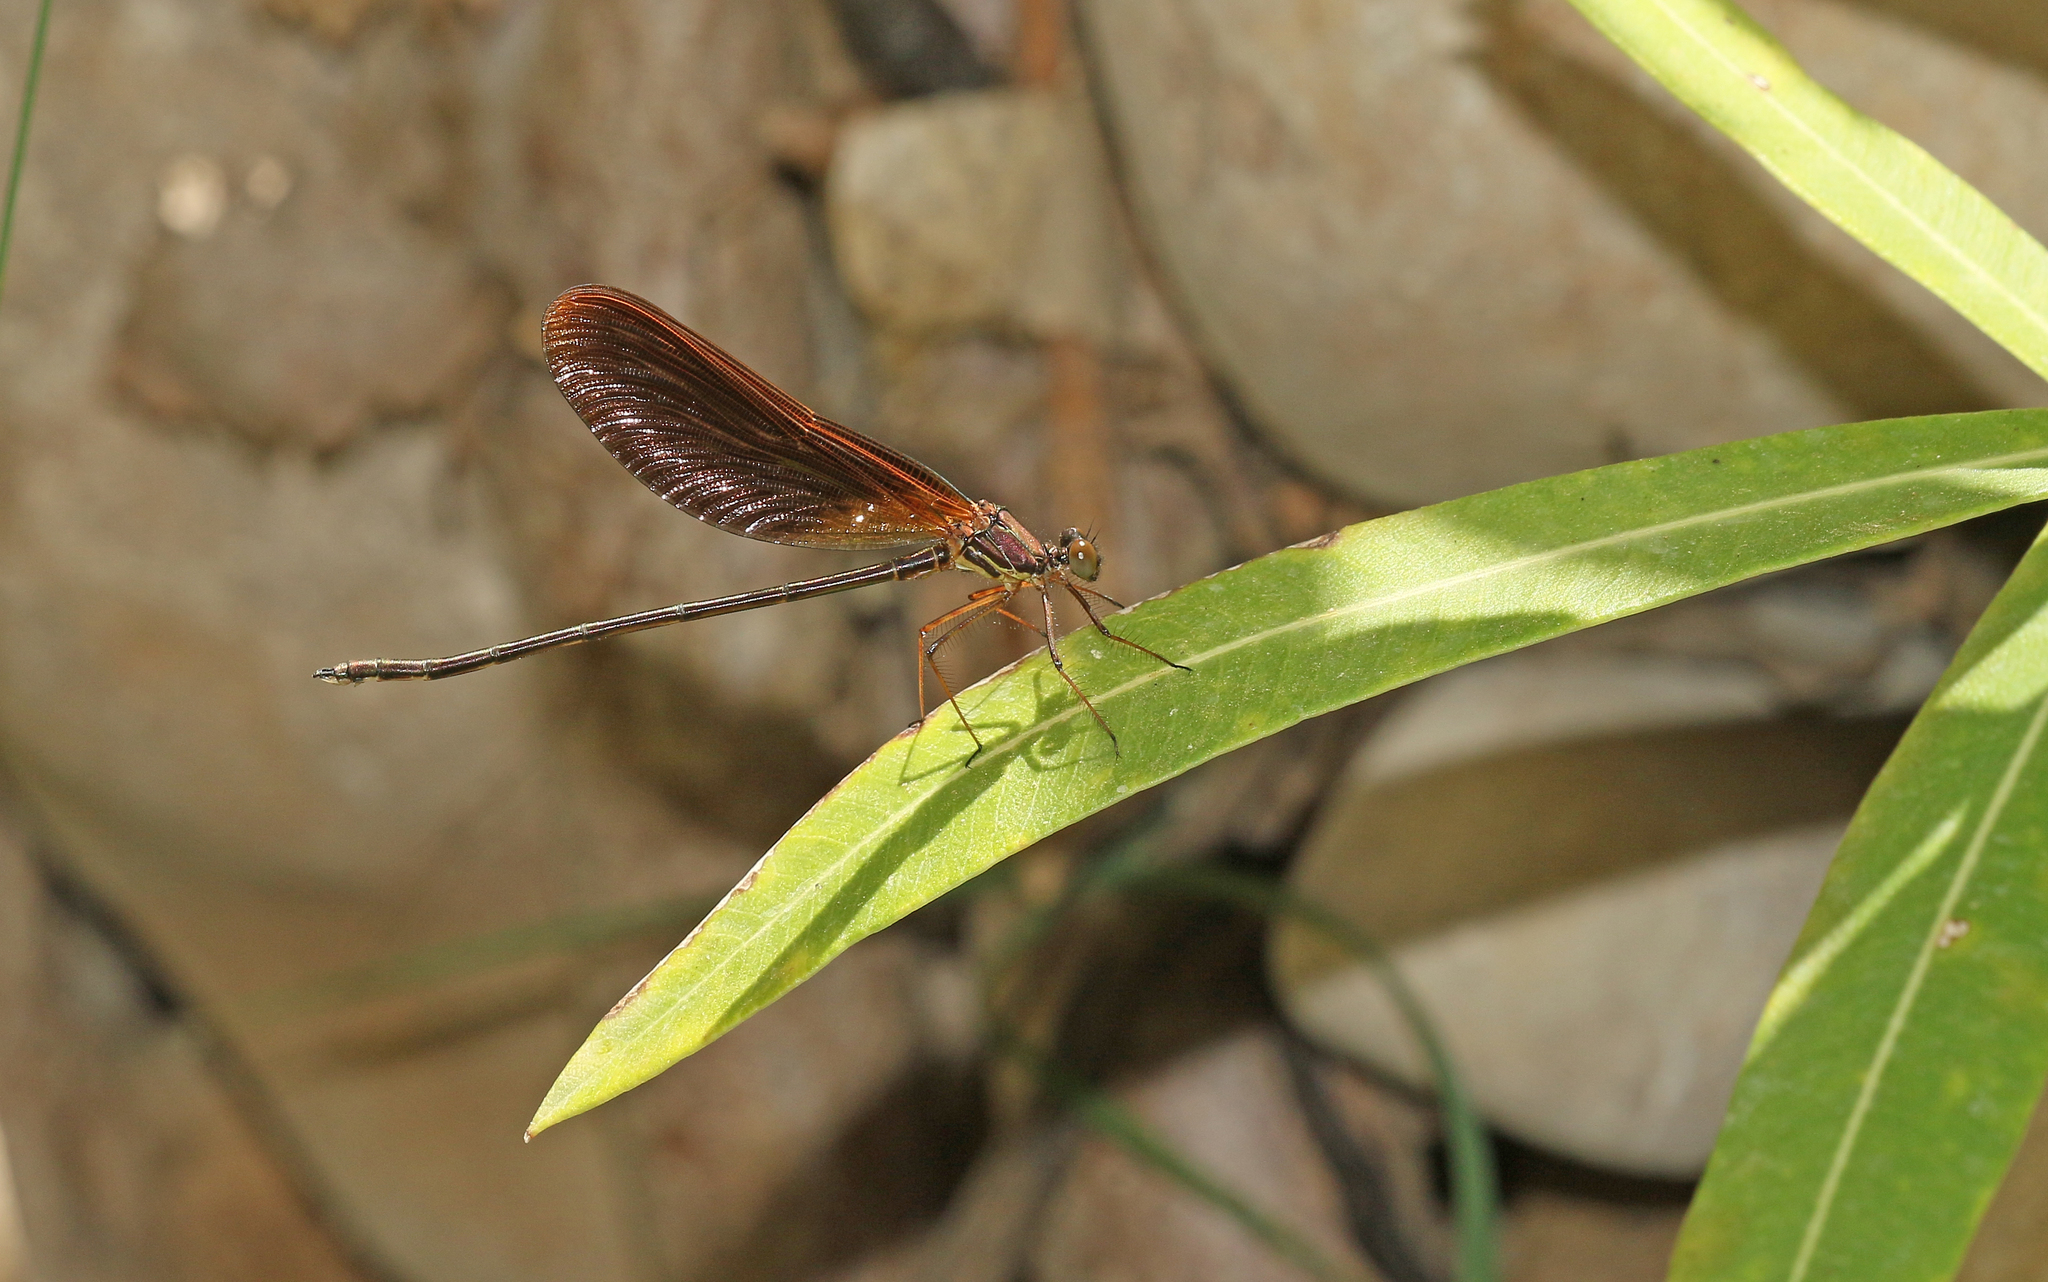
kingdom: Animalia
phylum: Arthropoda
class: Insecta
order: Odonata
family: Calopterygidae
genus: Calopteryx
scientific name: Calopteryx haemorrhoidalis
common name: Copper demoiselle
